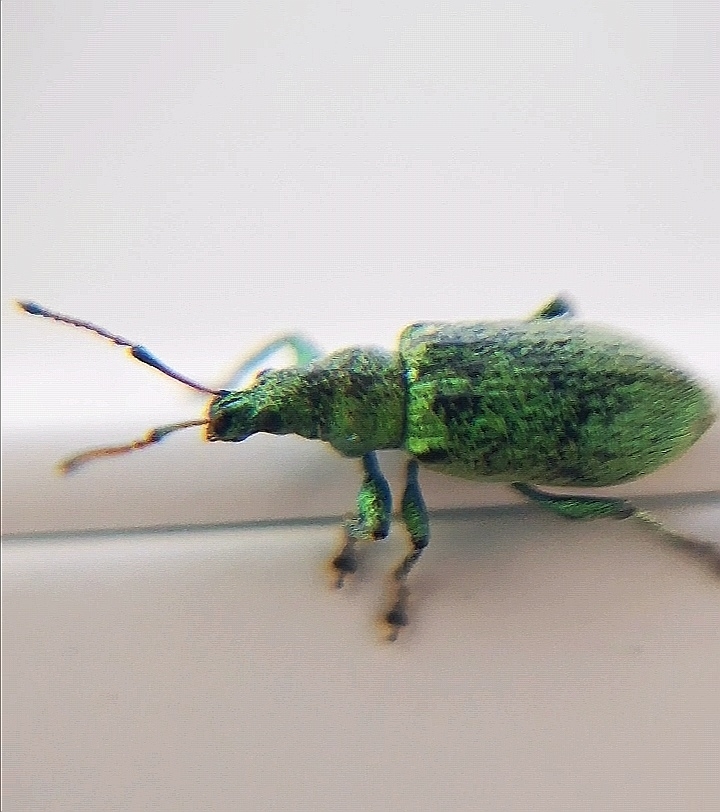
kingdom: Animalia
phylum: Arthropoda
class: Insecta
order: Coleoptera
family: Curculionidae
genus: Phyllobius
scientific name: Phyllobius maculicornis
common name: Green leaf weevil
